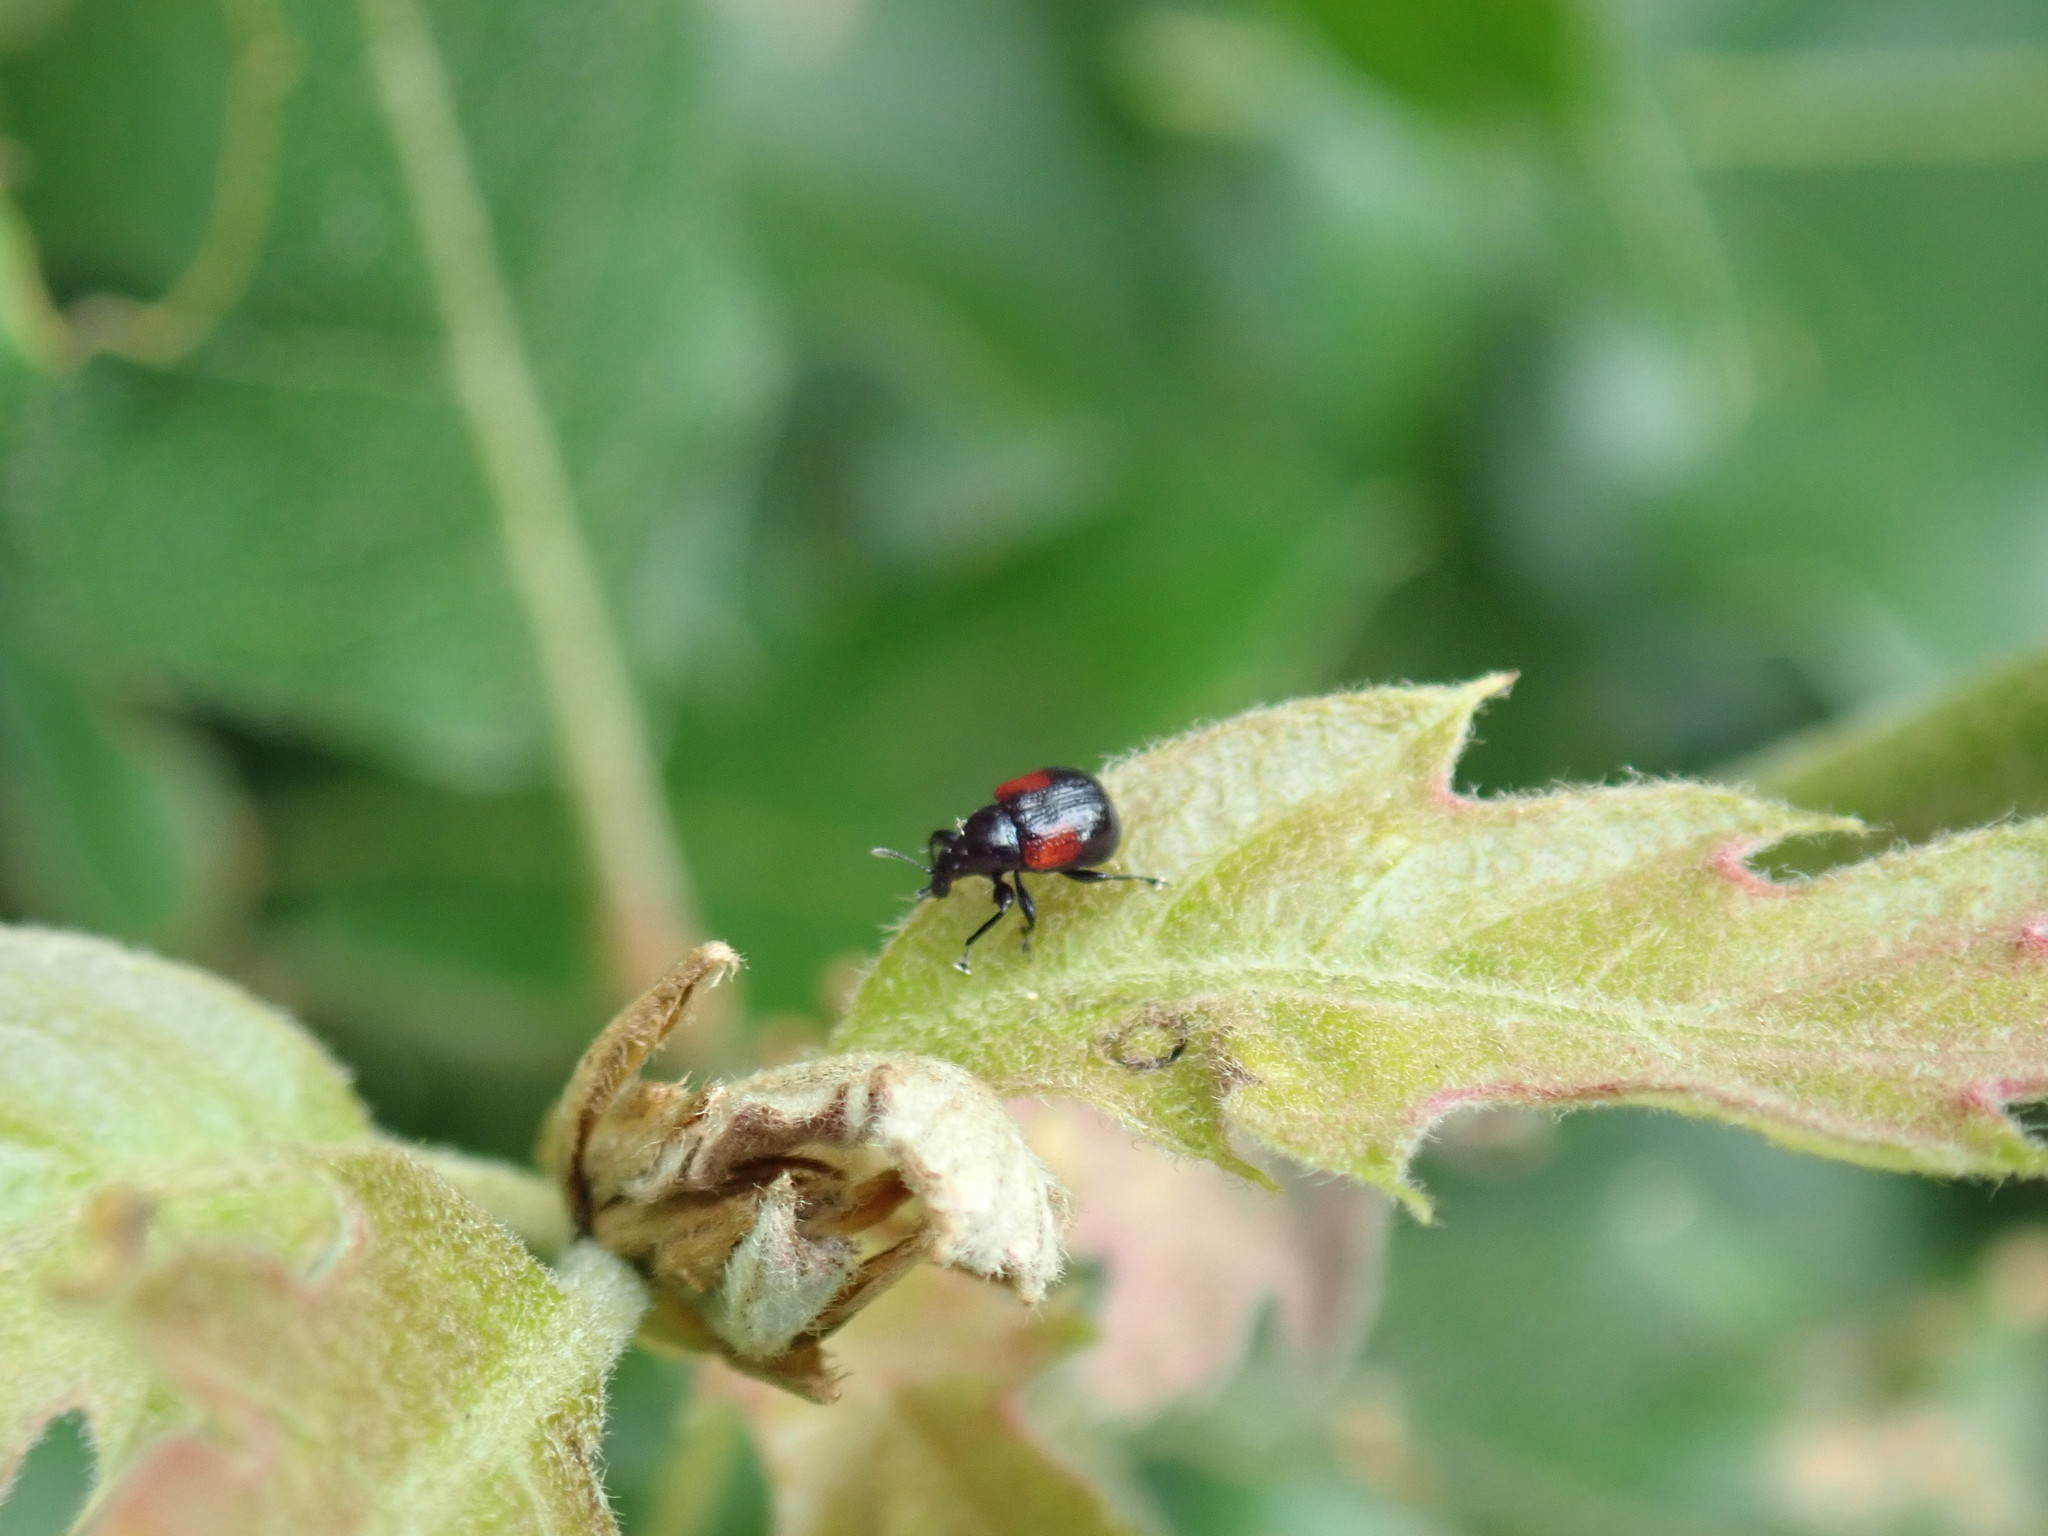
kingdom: Animalia
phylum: Arthropoda
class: Insecta
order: Coleoptera
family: Attelabidae
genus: Attelabus
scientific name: Attelabus bipustulatus
